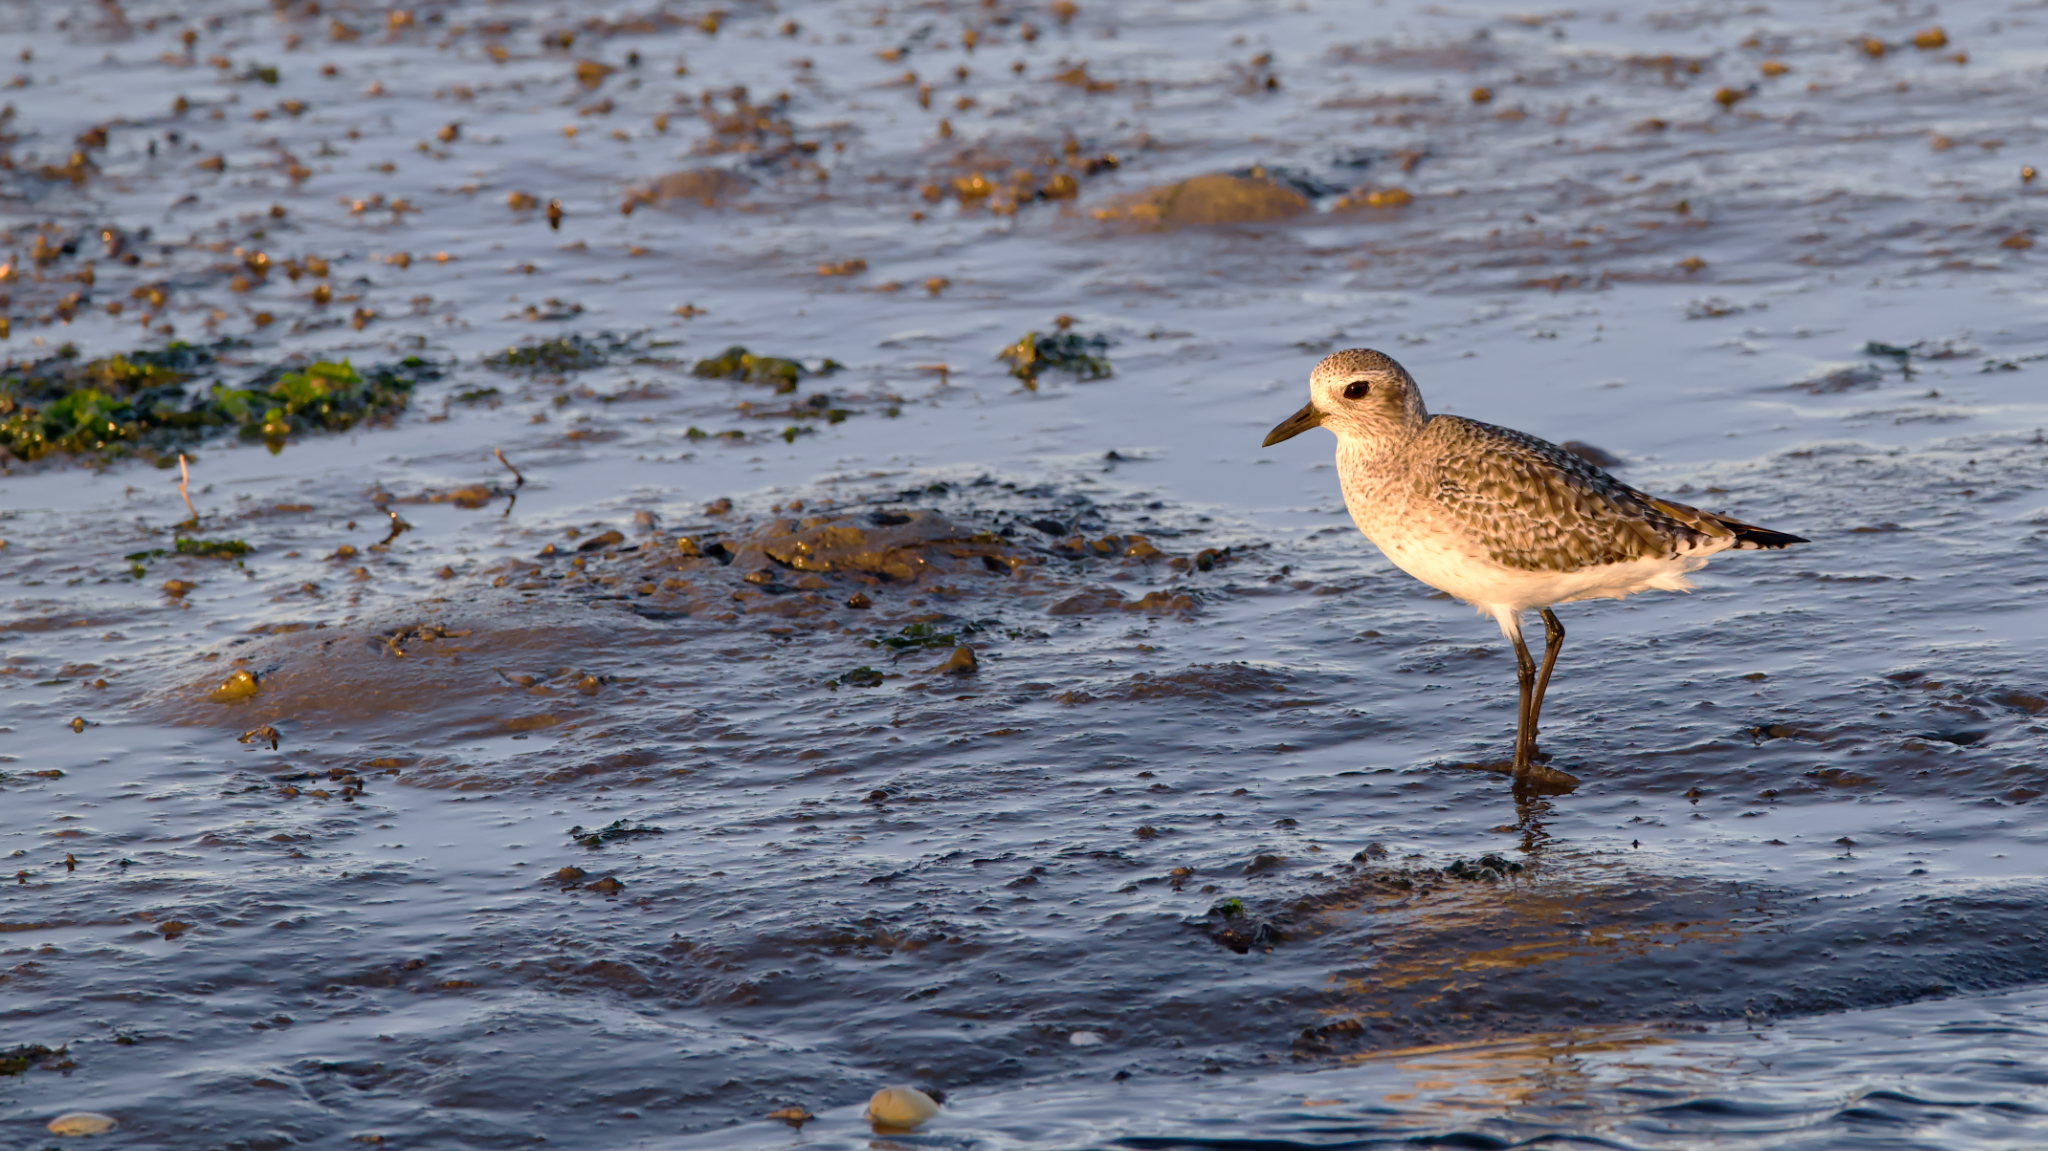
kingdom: Animalia
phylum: Chordata
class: Aves
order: Charadriiformes
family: Charadriidae
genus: Pluvialis
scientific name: Pluvialis squatarola
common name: Grey plover
